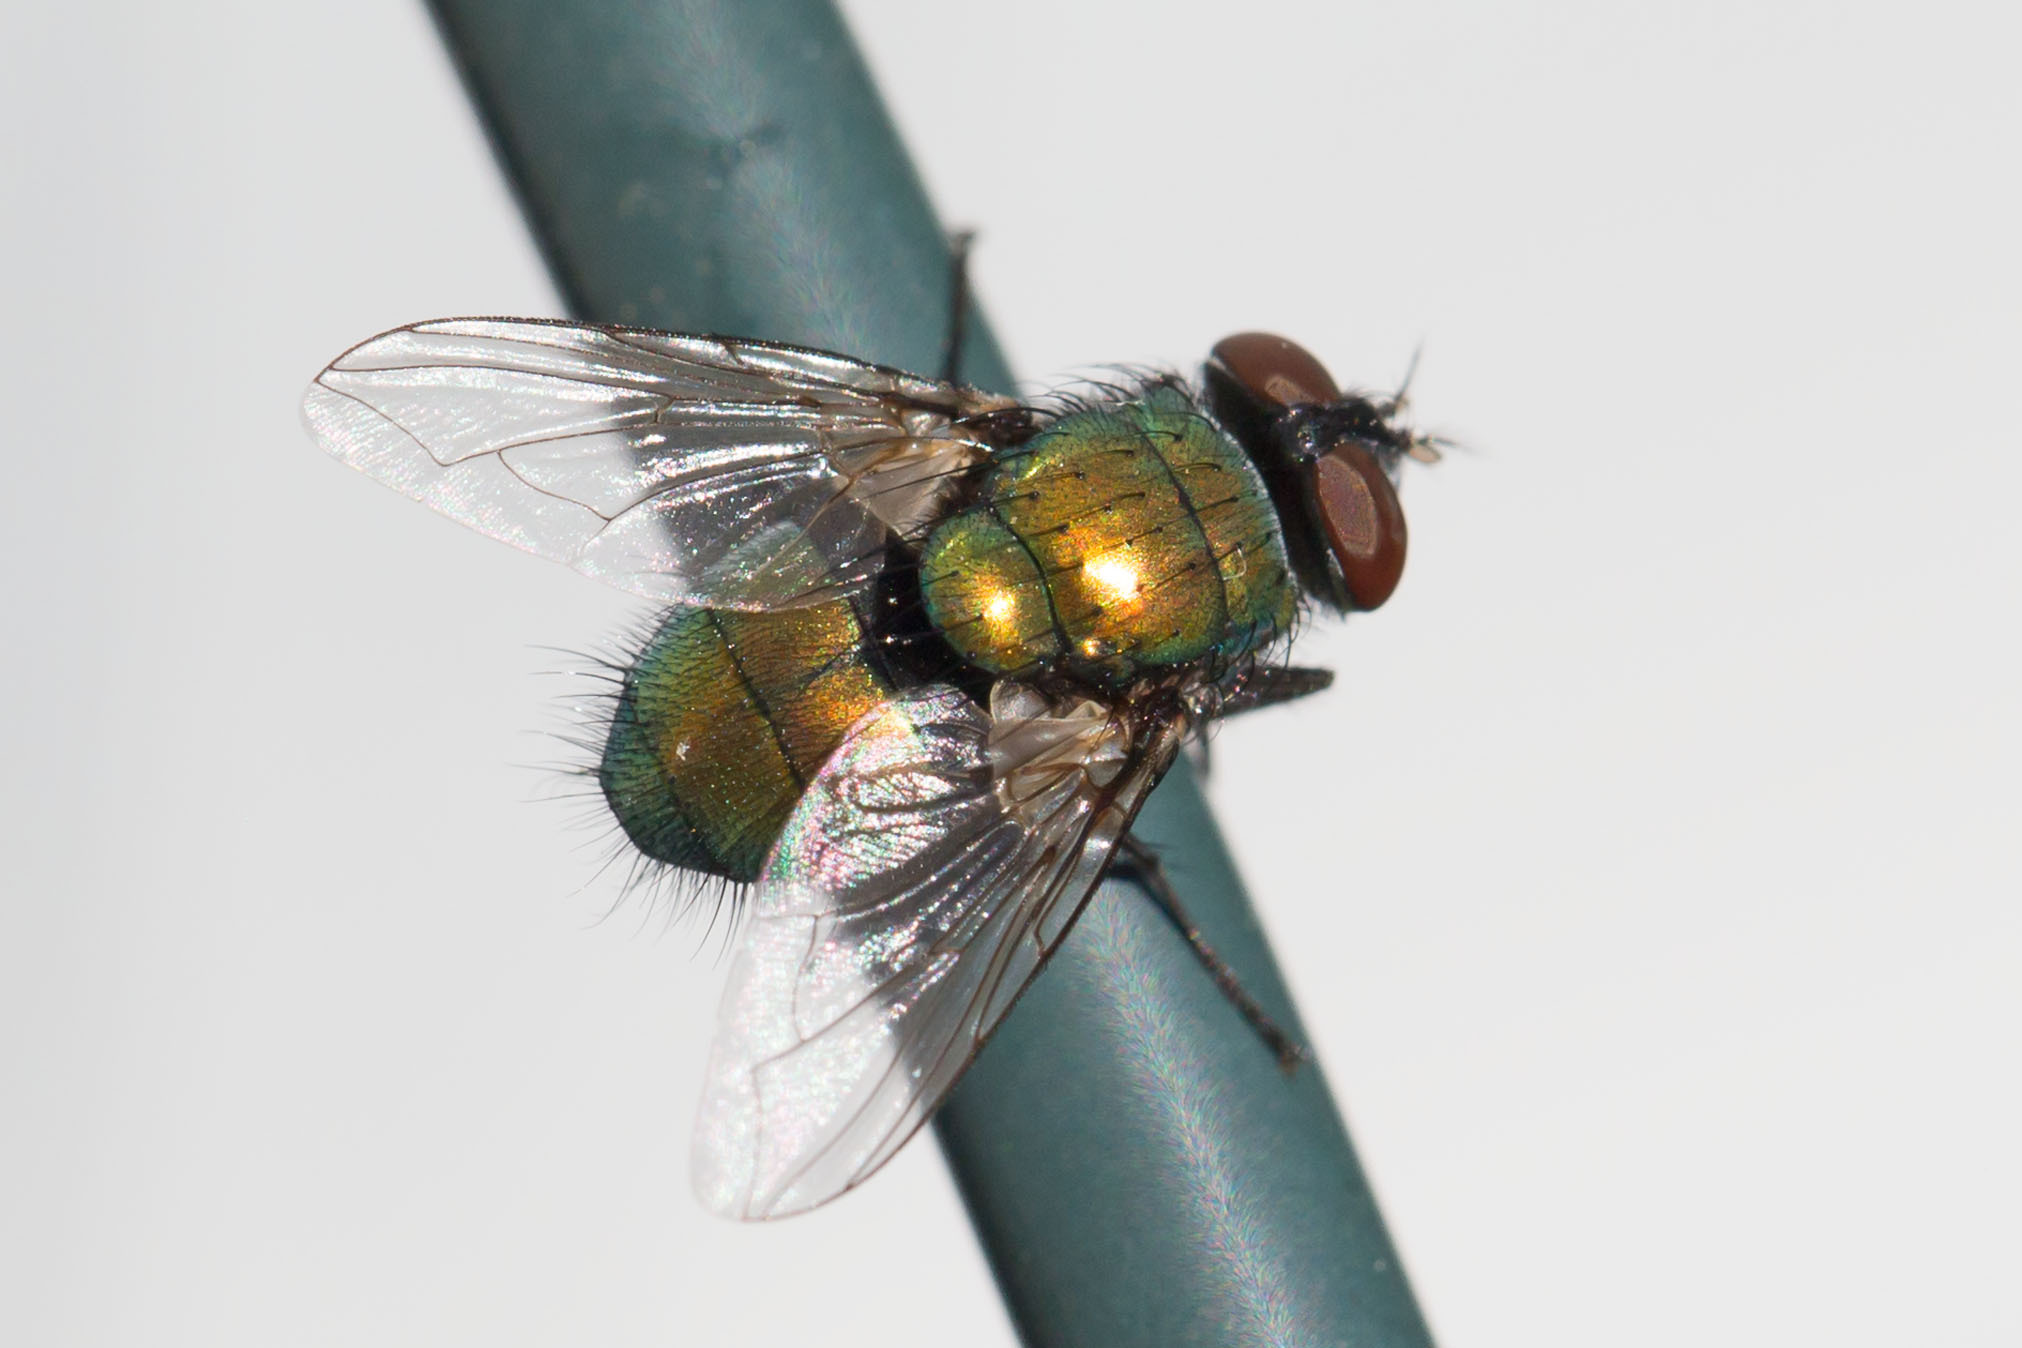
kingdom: Animalia
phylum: Arthropoda
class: Insecta
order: Diptera
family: Calliphoridae
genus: Lucilia
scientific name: Lucilia sericata
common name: Blow fly
